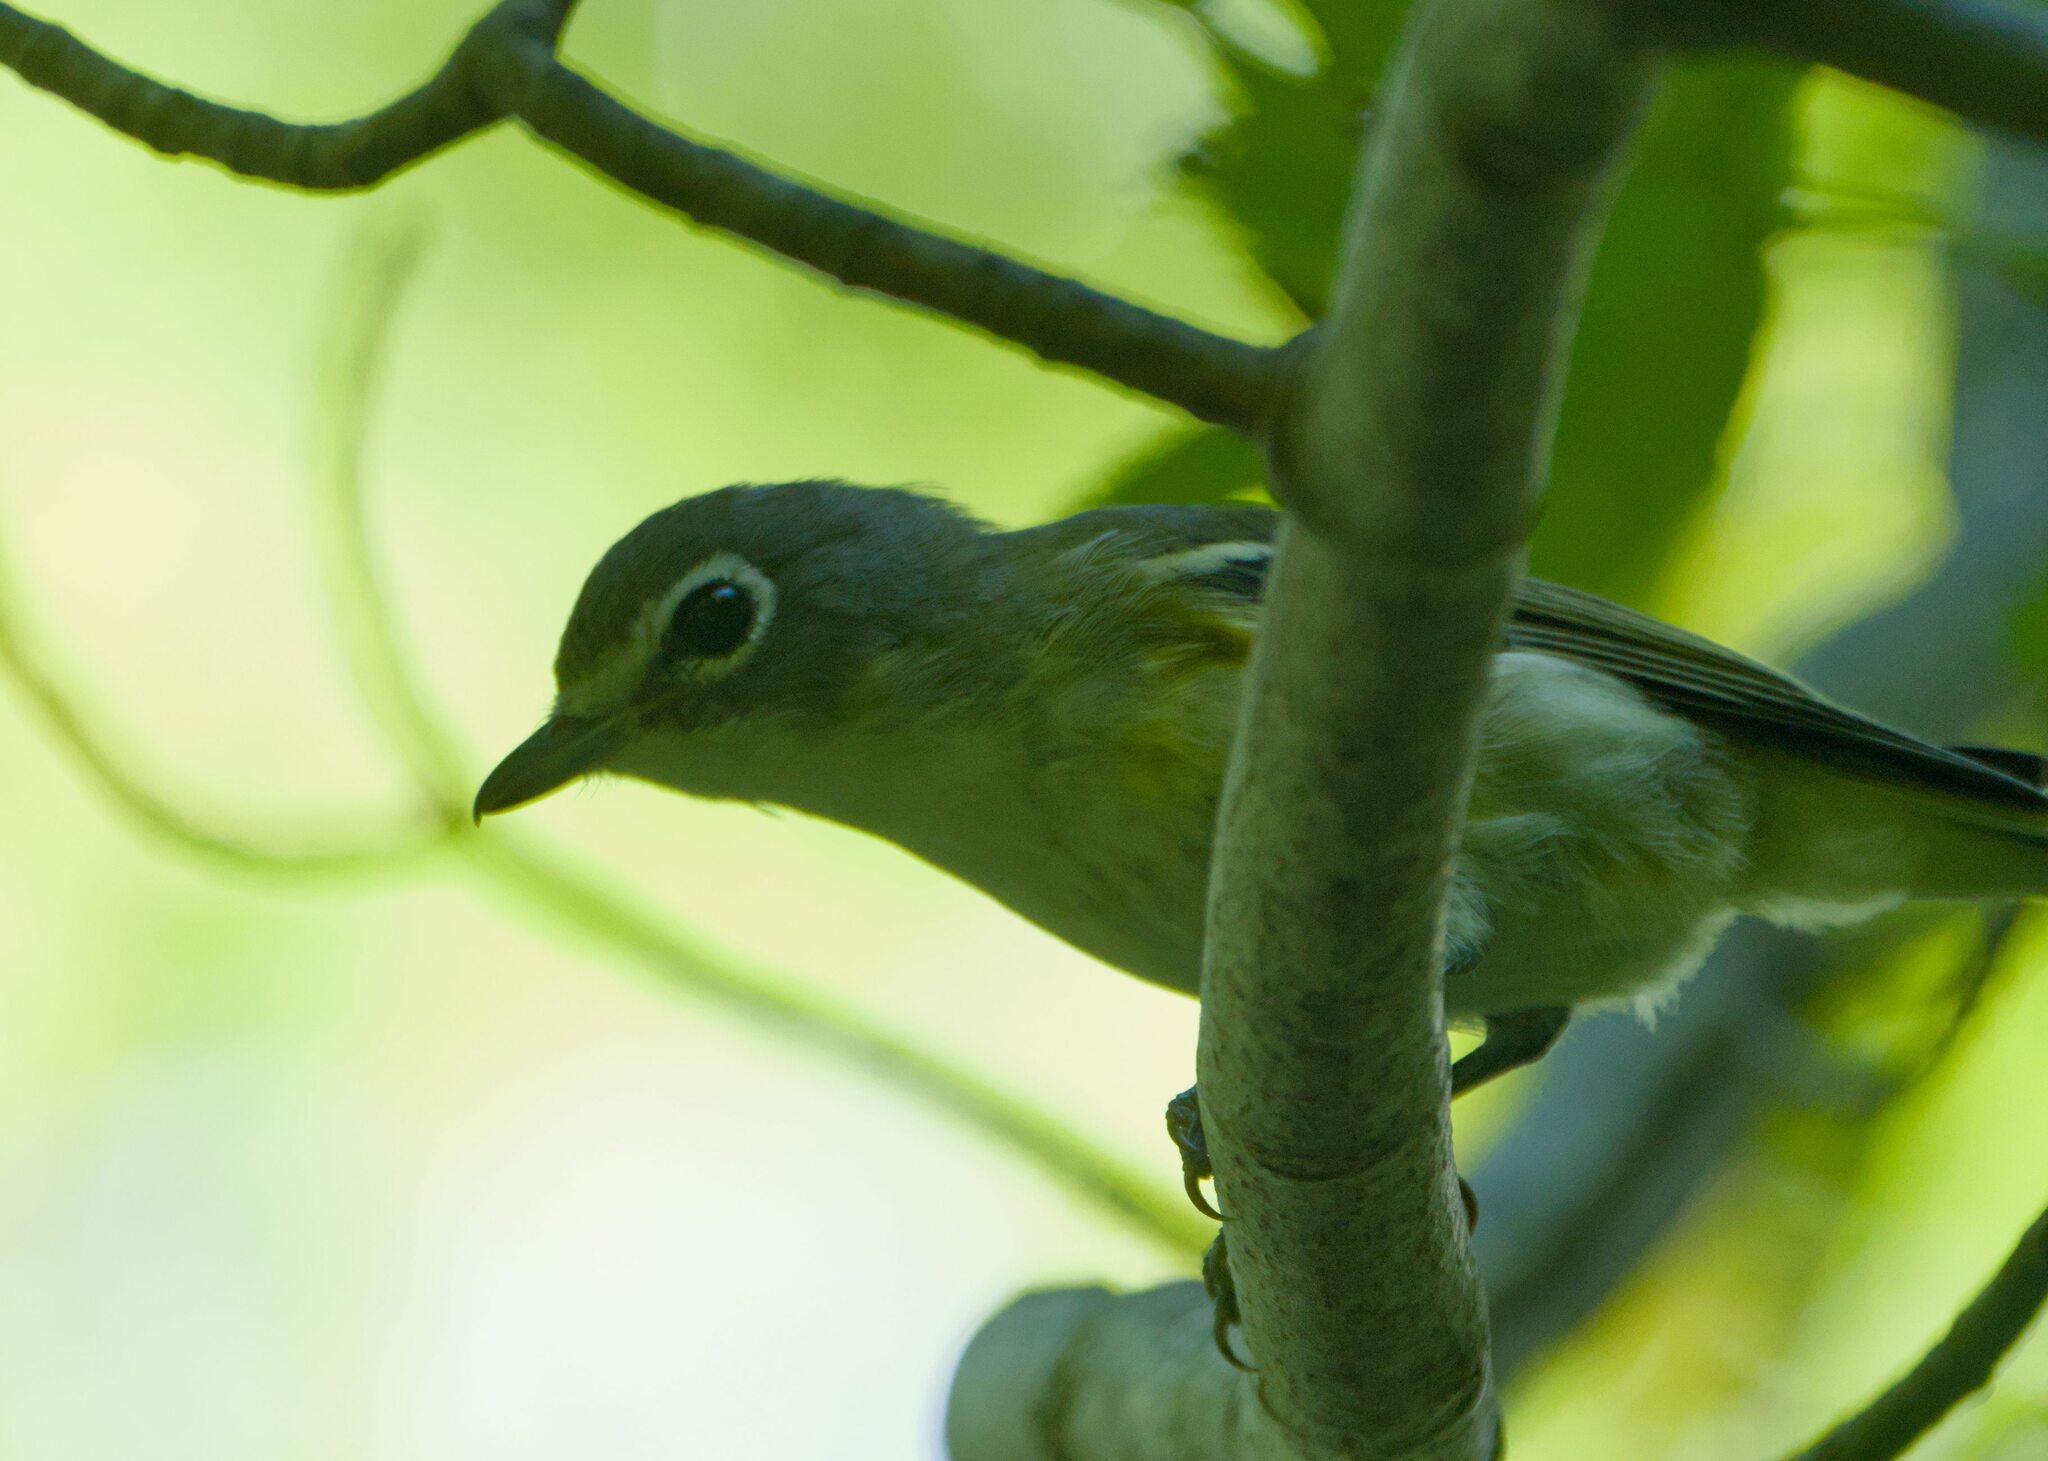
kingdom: Animalia
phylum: Chordata
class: Aves
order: Passeriformes
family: Vireonidae
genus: Vireo
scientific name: Vireo solitarius
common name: Blue-headed vireo
